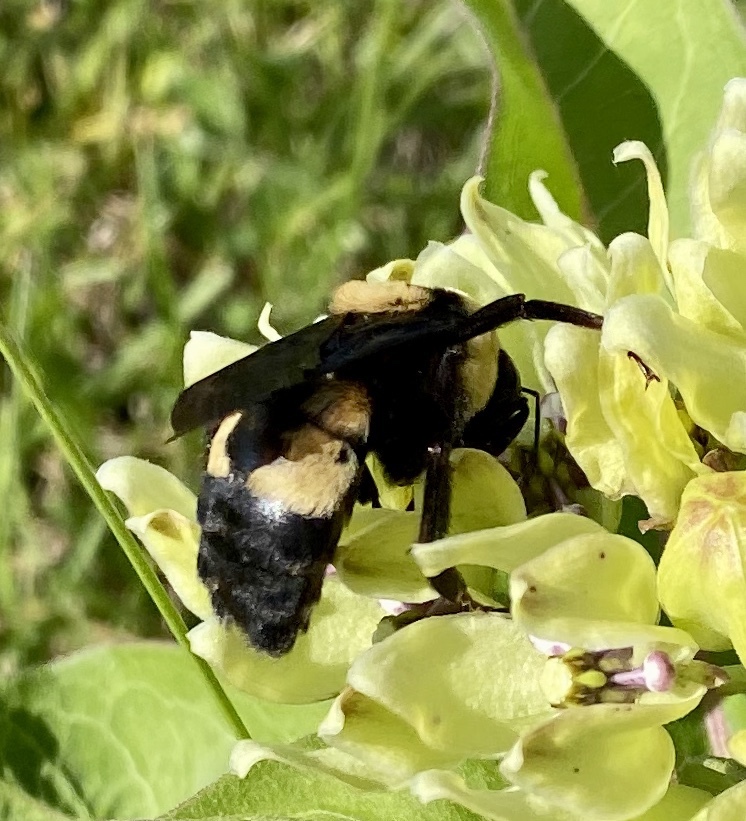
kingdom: Animalia
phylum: Arthropoda
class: Insecta
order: Hymenoptera
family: Apidae
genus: Bombus
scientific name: Bombus fraternus
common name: Southern plains bumble bee
